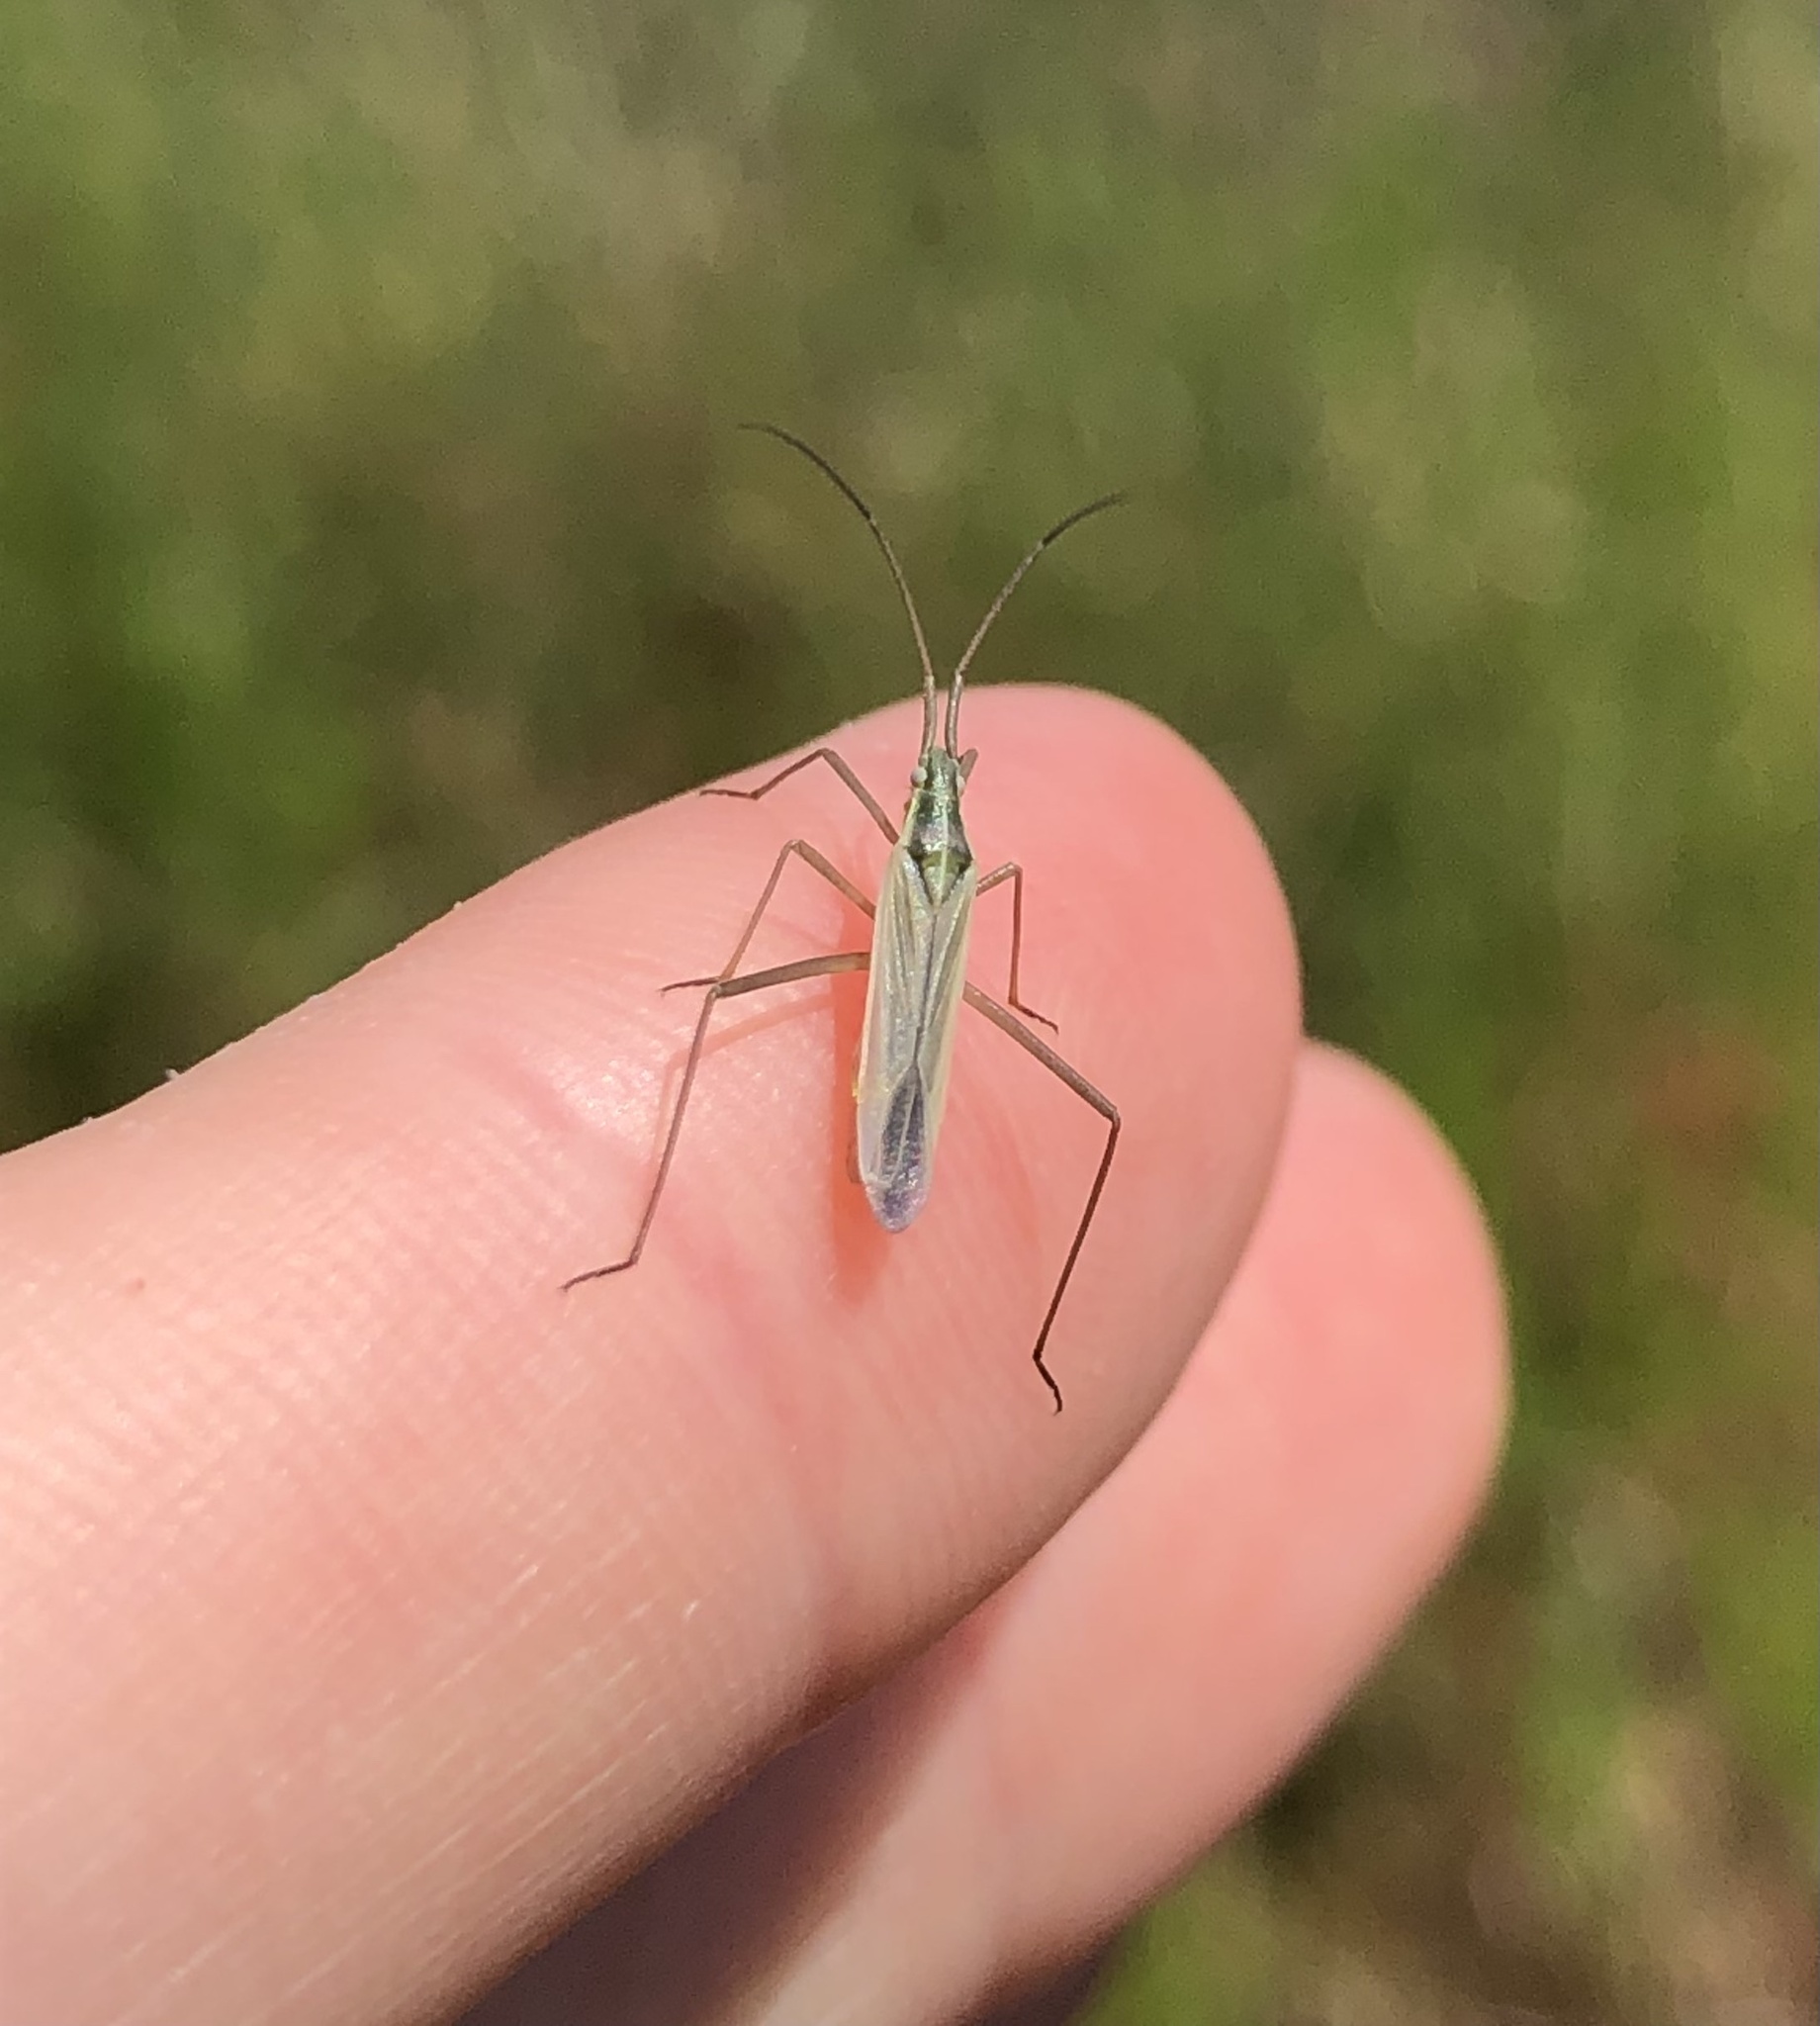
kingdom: Animalia
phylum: Arthropoda
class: Insecta
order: Hemiptera
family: Miridae
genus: Megaloceroea
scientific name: Megaloceroea recticornis
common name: Plant bug
